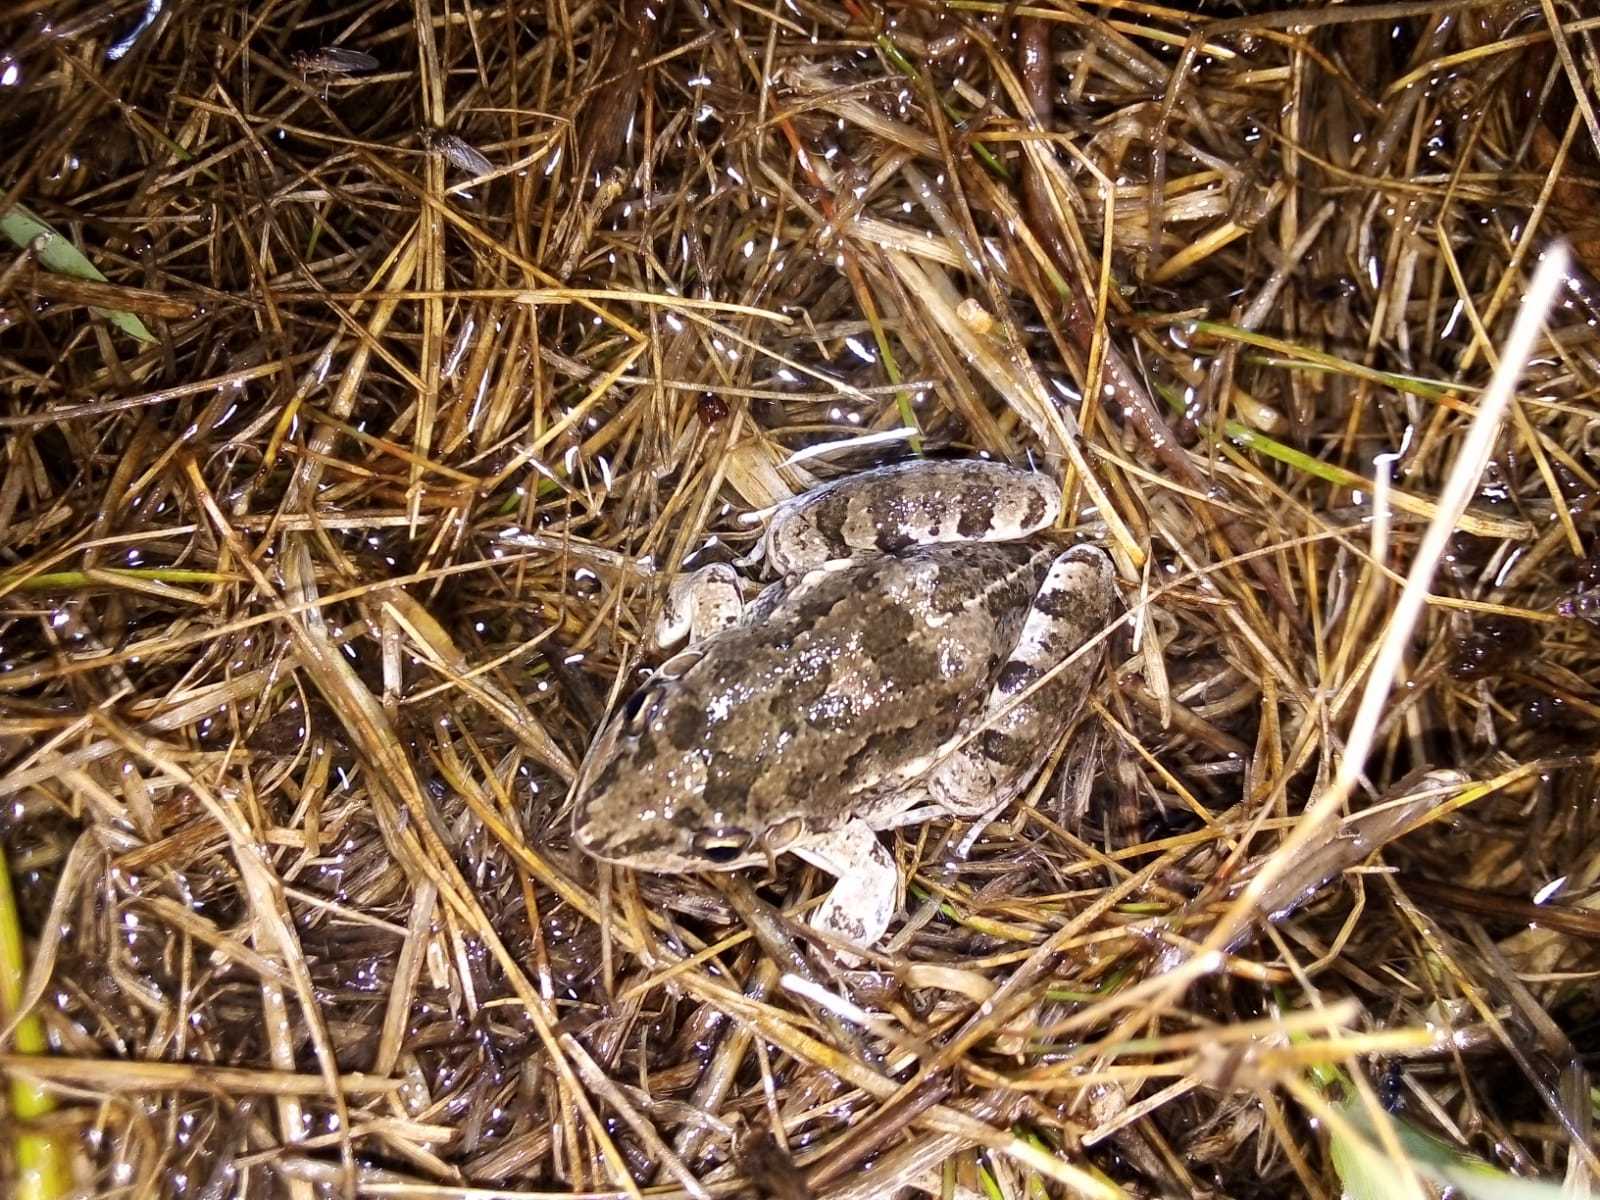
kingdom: Animalia
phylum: Chordata
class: Amphibia
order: Anura
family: Leptodactylidae
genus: Leptodactylus
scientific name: Leptodactylus latinasus
